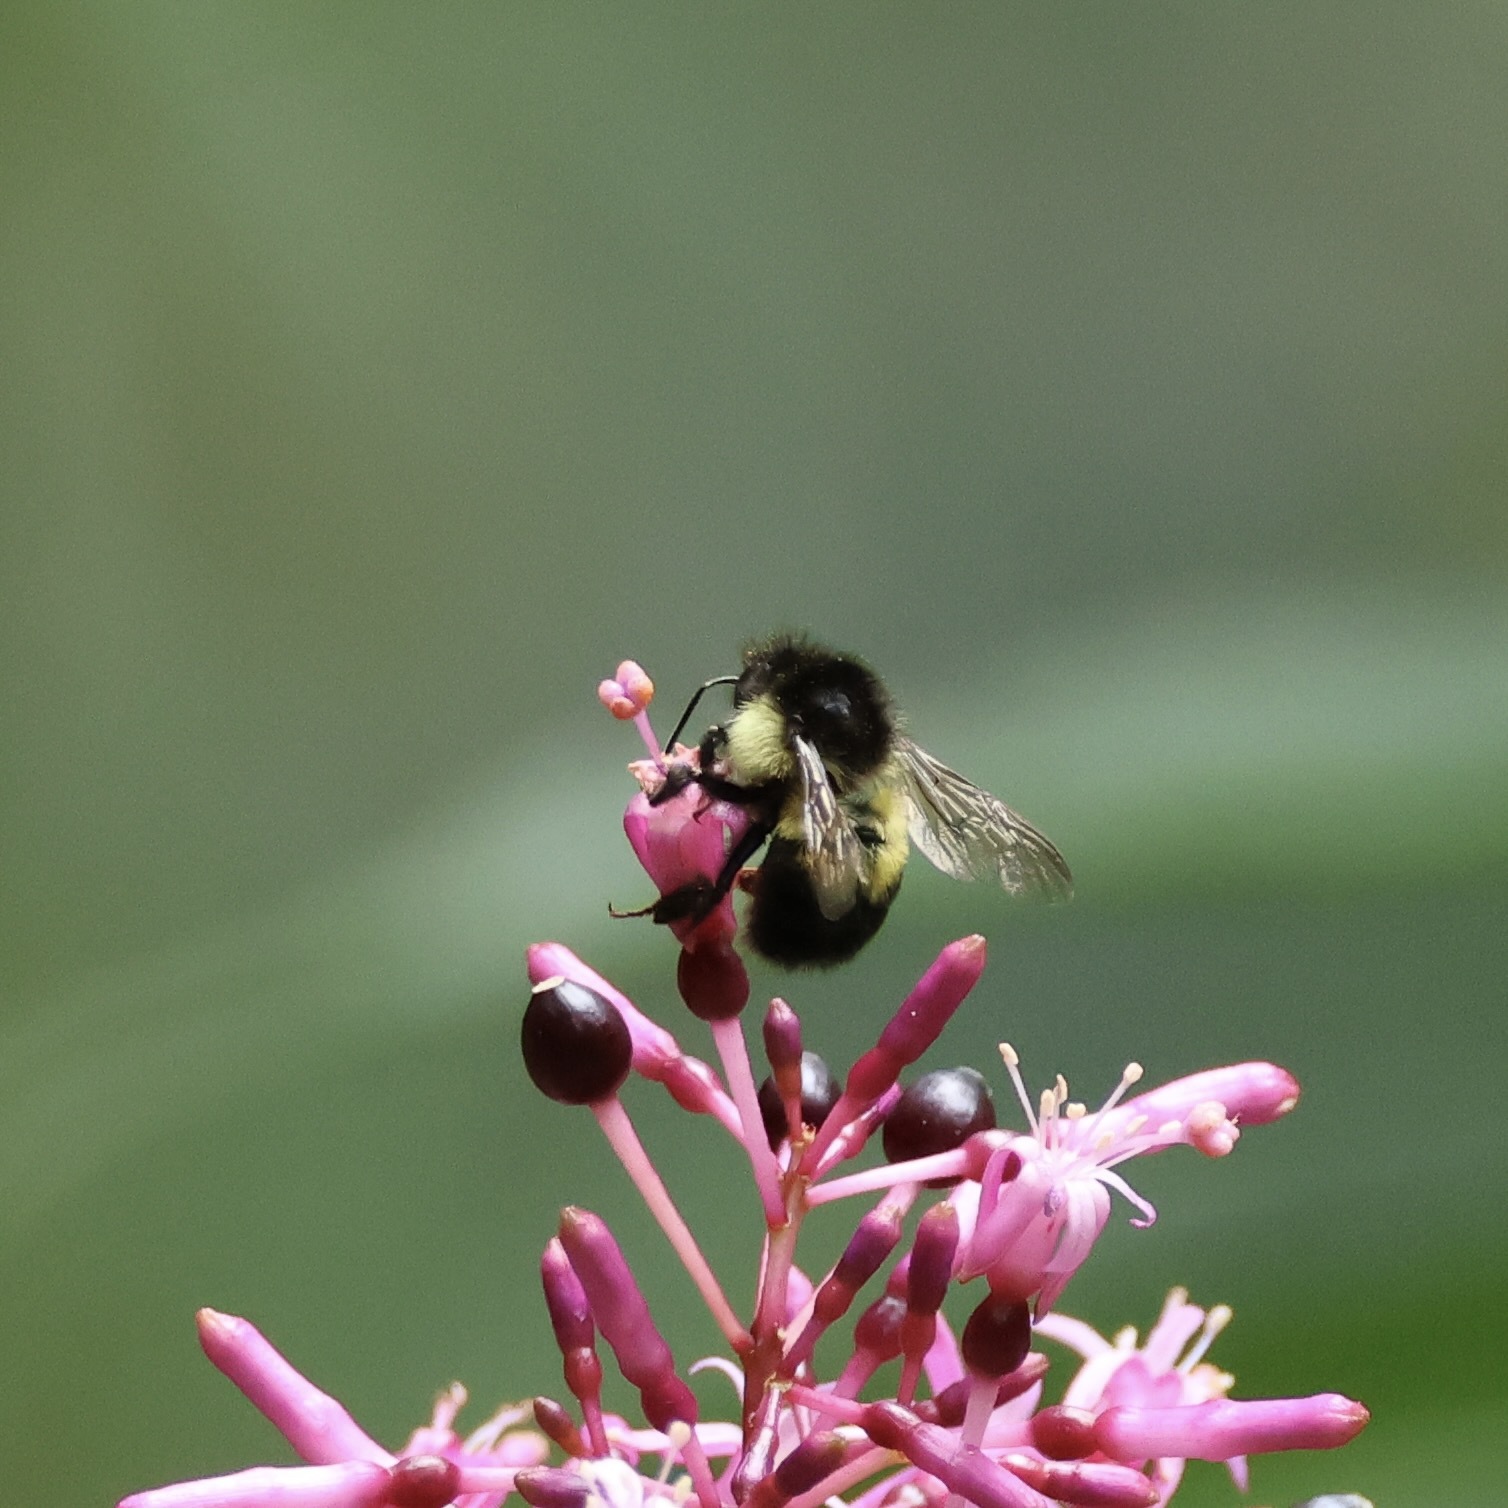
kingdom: Animalia
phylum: Arthropoda
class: Insecta
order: Hymenoptera
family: Apidae
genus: Bombus
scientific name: Bombus ephippiatus
